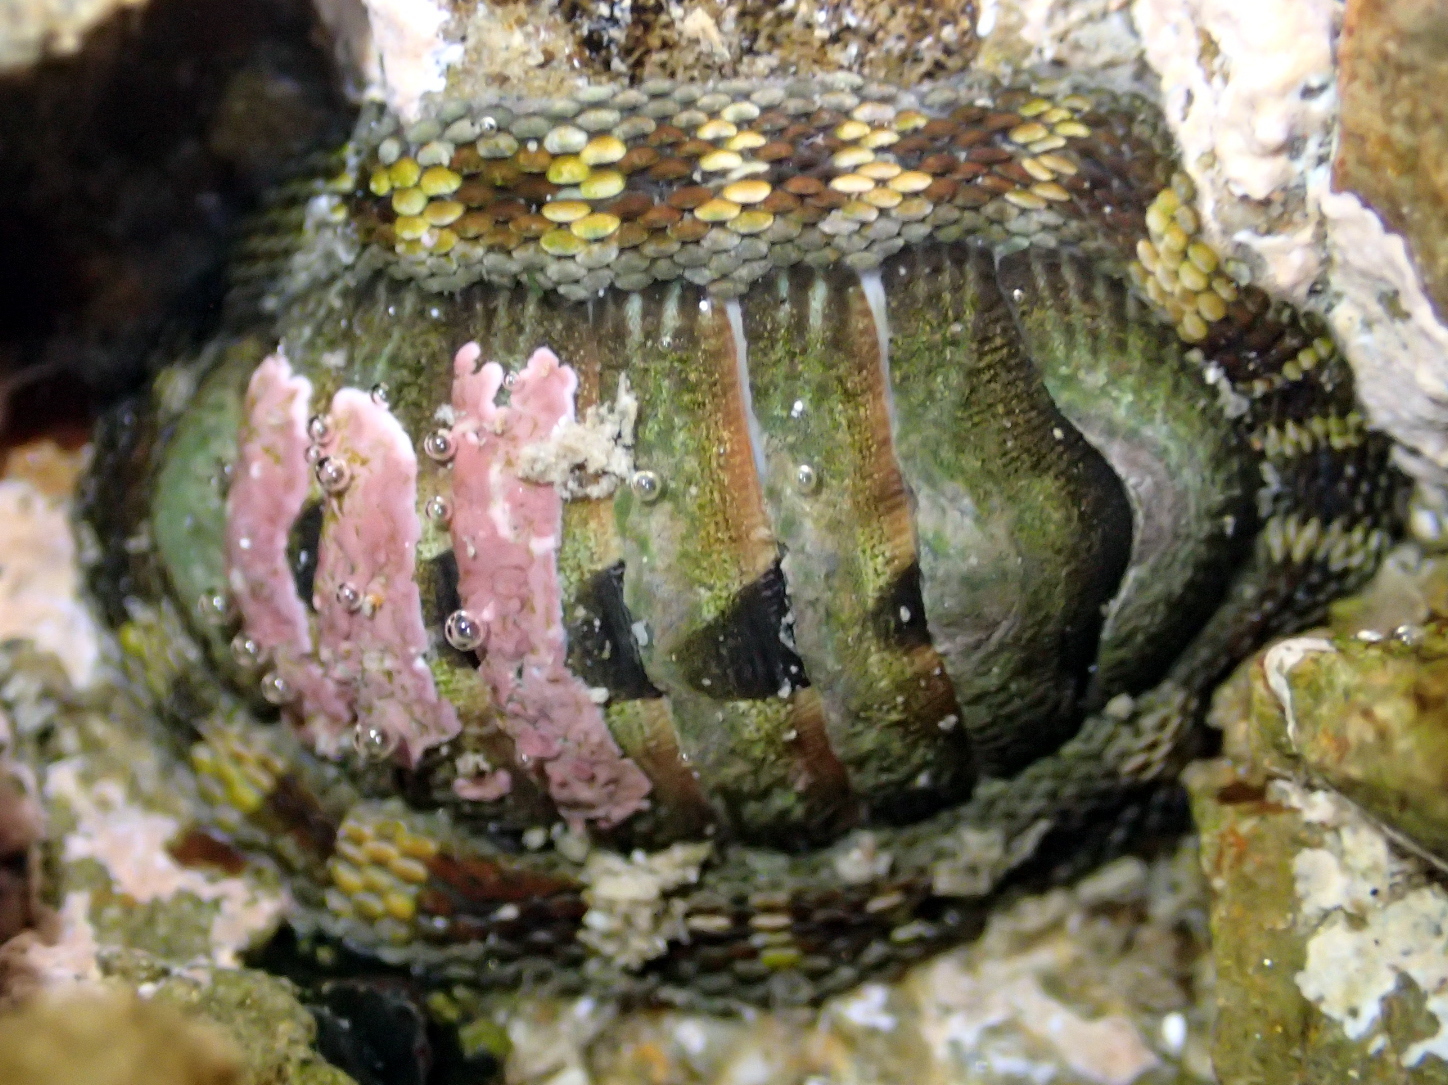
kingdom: Animalia
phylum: Mollusca
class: Polyplacophora
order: Chitonida
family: Chitonidae
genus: Sypharochiton
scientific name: Sypharochiton pelliserpentis
